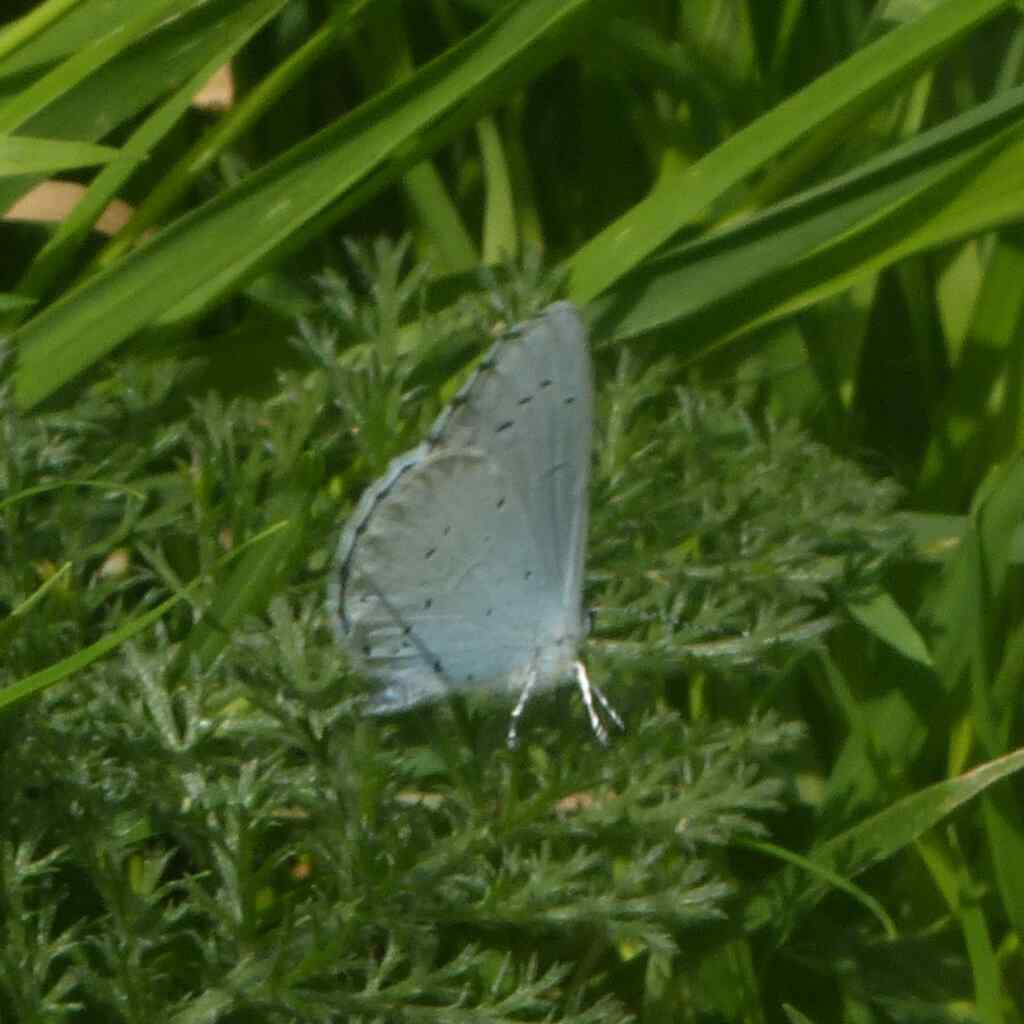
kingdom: Animalia
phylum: Arthropoda
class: Insecta
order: Lepidoptera
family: Lycaenidae
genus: Celastrina
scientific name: Celastrina argiolus
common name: Holly blue
